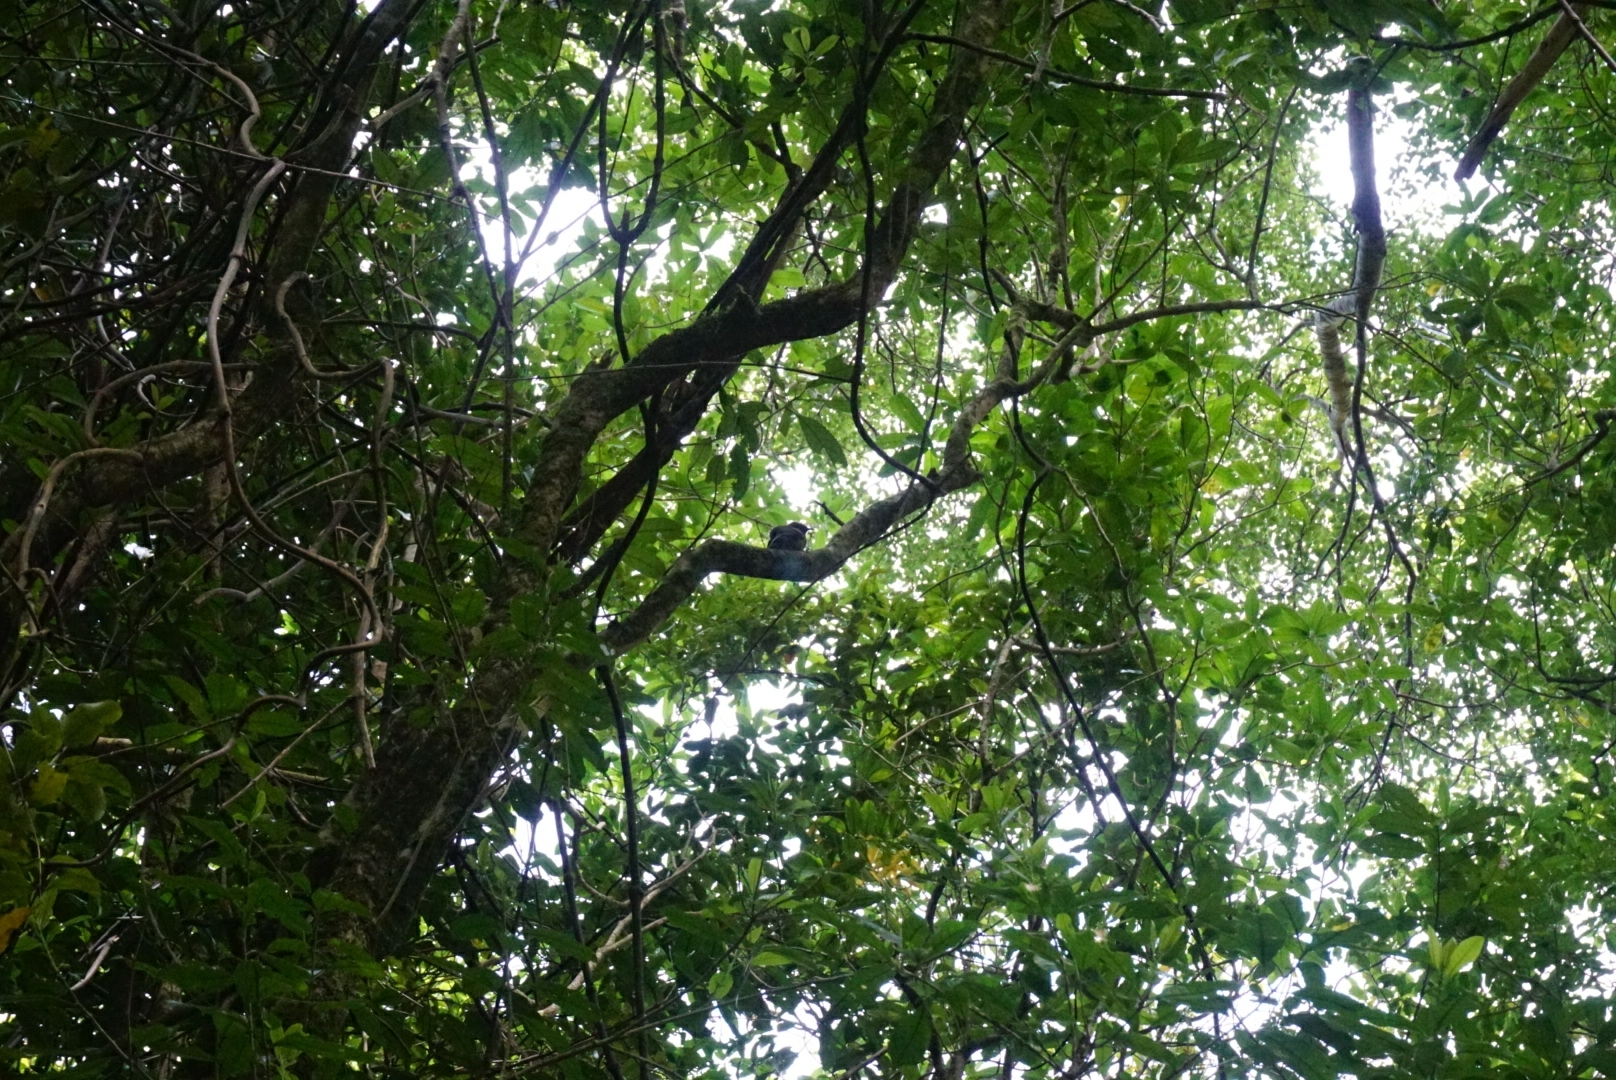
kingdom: Animalia
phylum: Chordata
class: Aves
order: Passeriformes
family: Meliphagidae
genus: Anthornis
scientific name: Anthornis melanura
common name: New zealand bellbird
